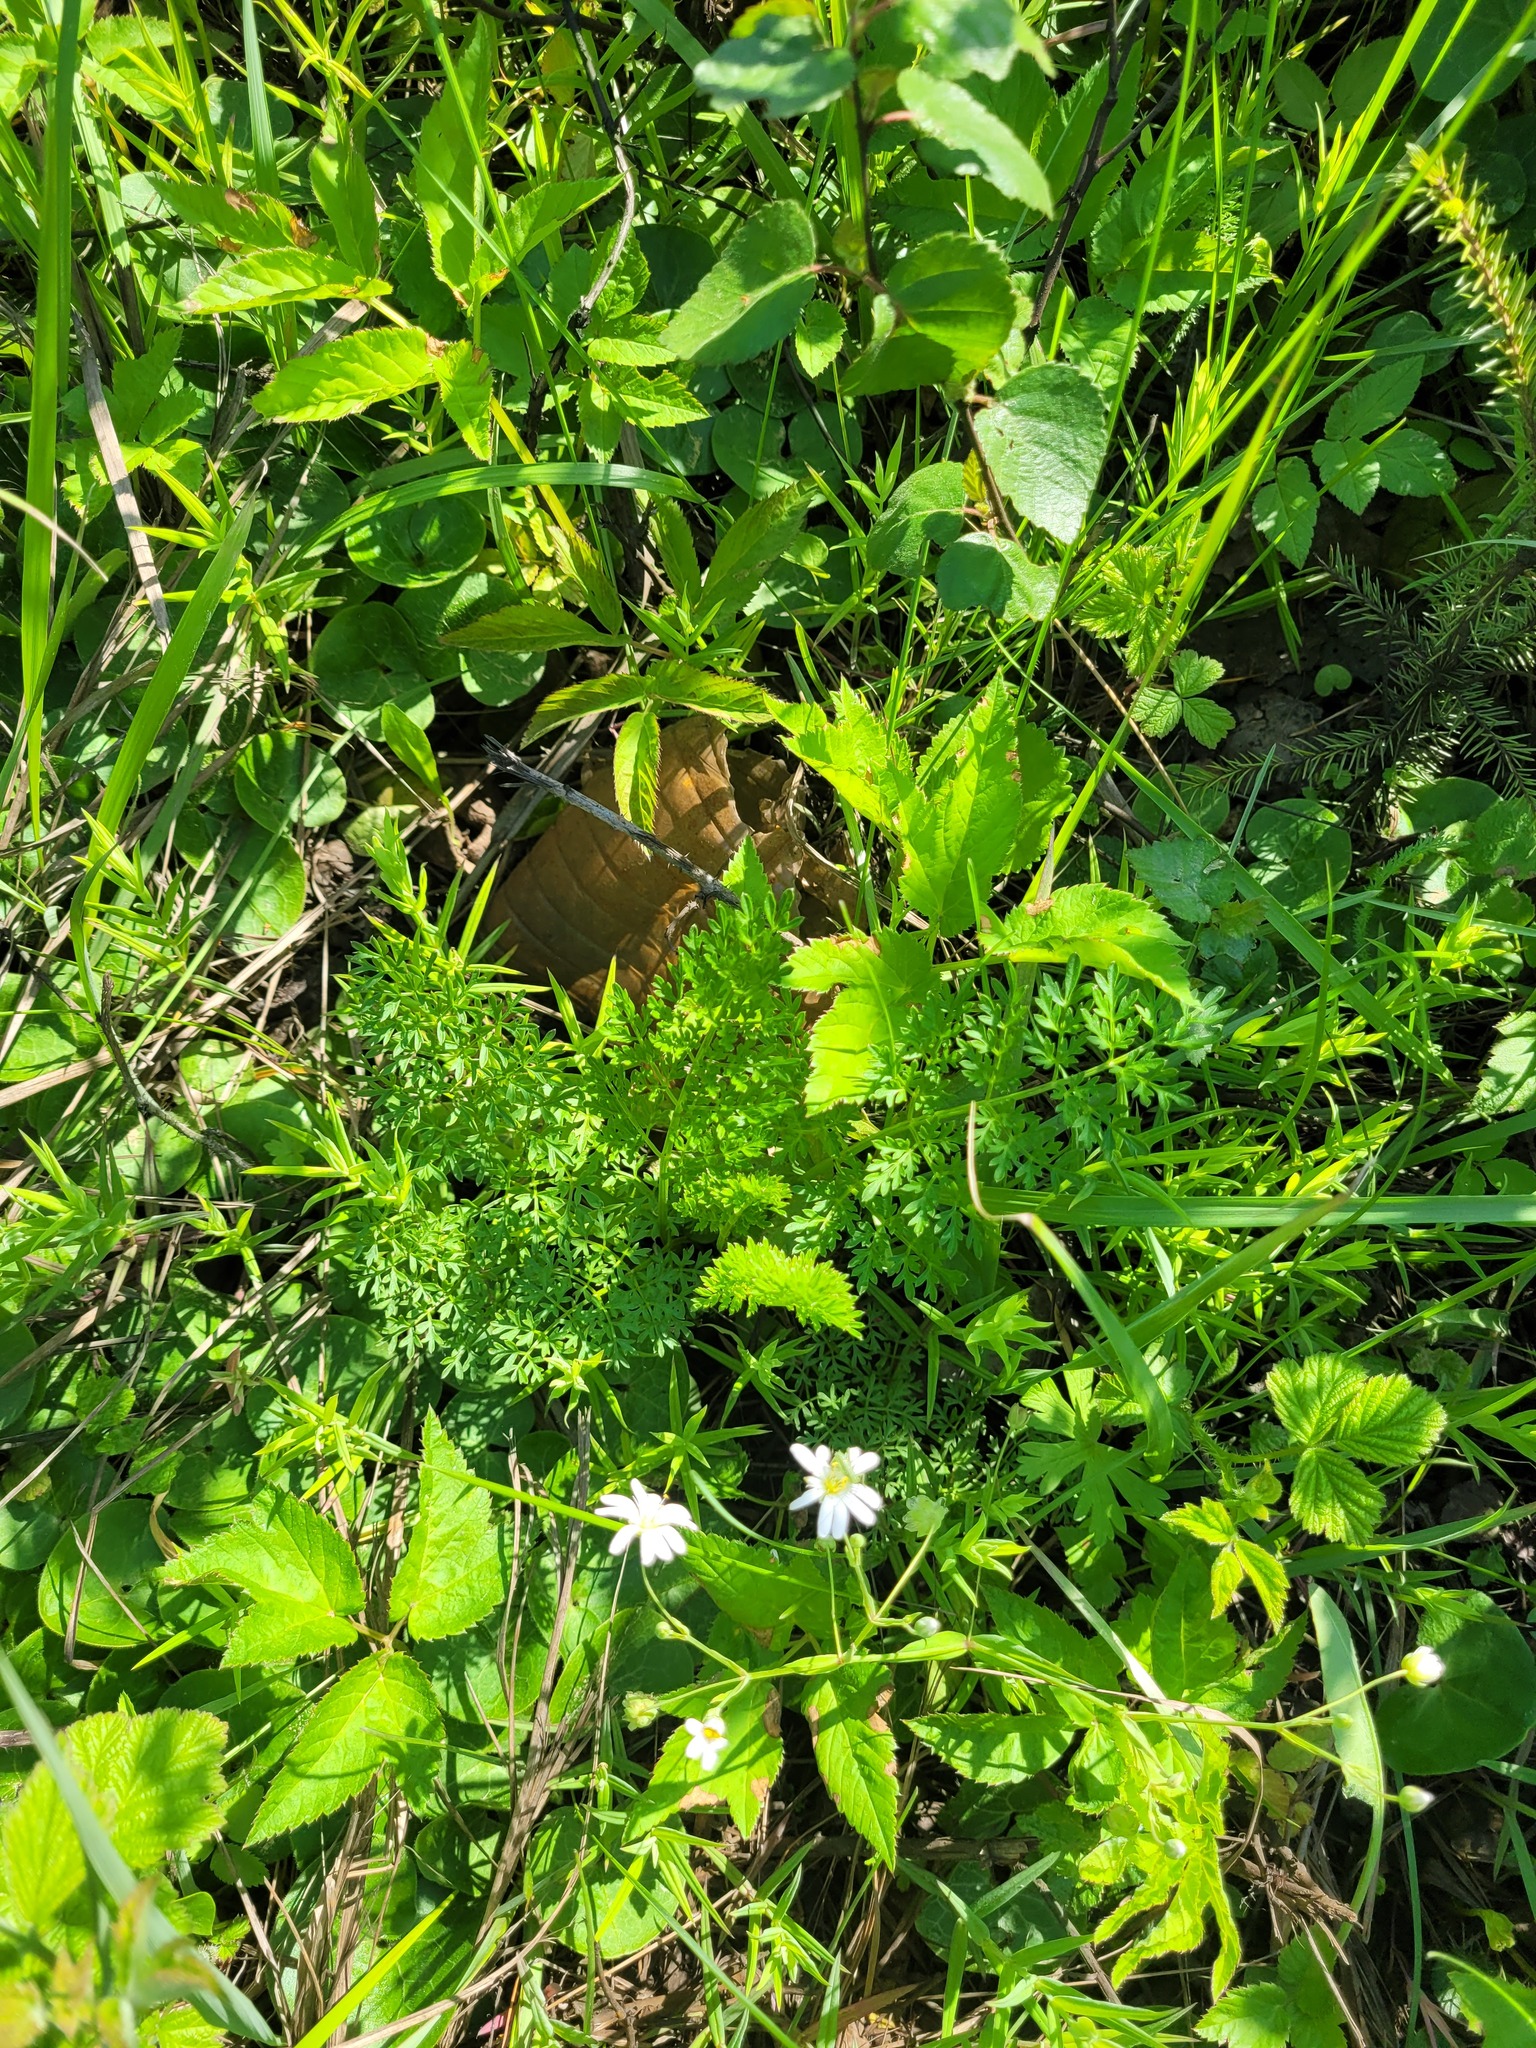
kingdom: Plantae
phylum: Tracheophyta
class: Magnoliopsida
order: Apiales
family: Apiaceae
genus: Selinum
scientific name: Selinum carvifolia
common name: Cambridge milk-parsley
